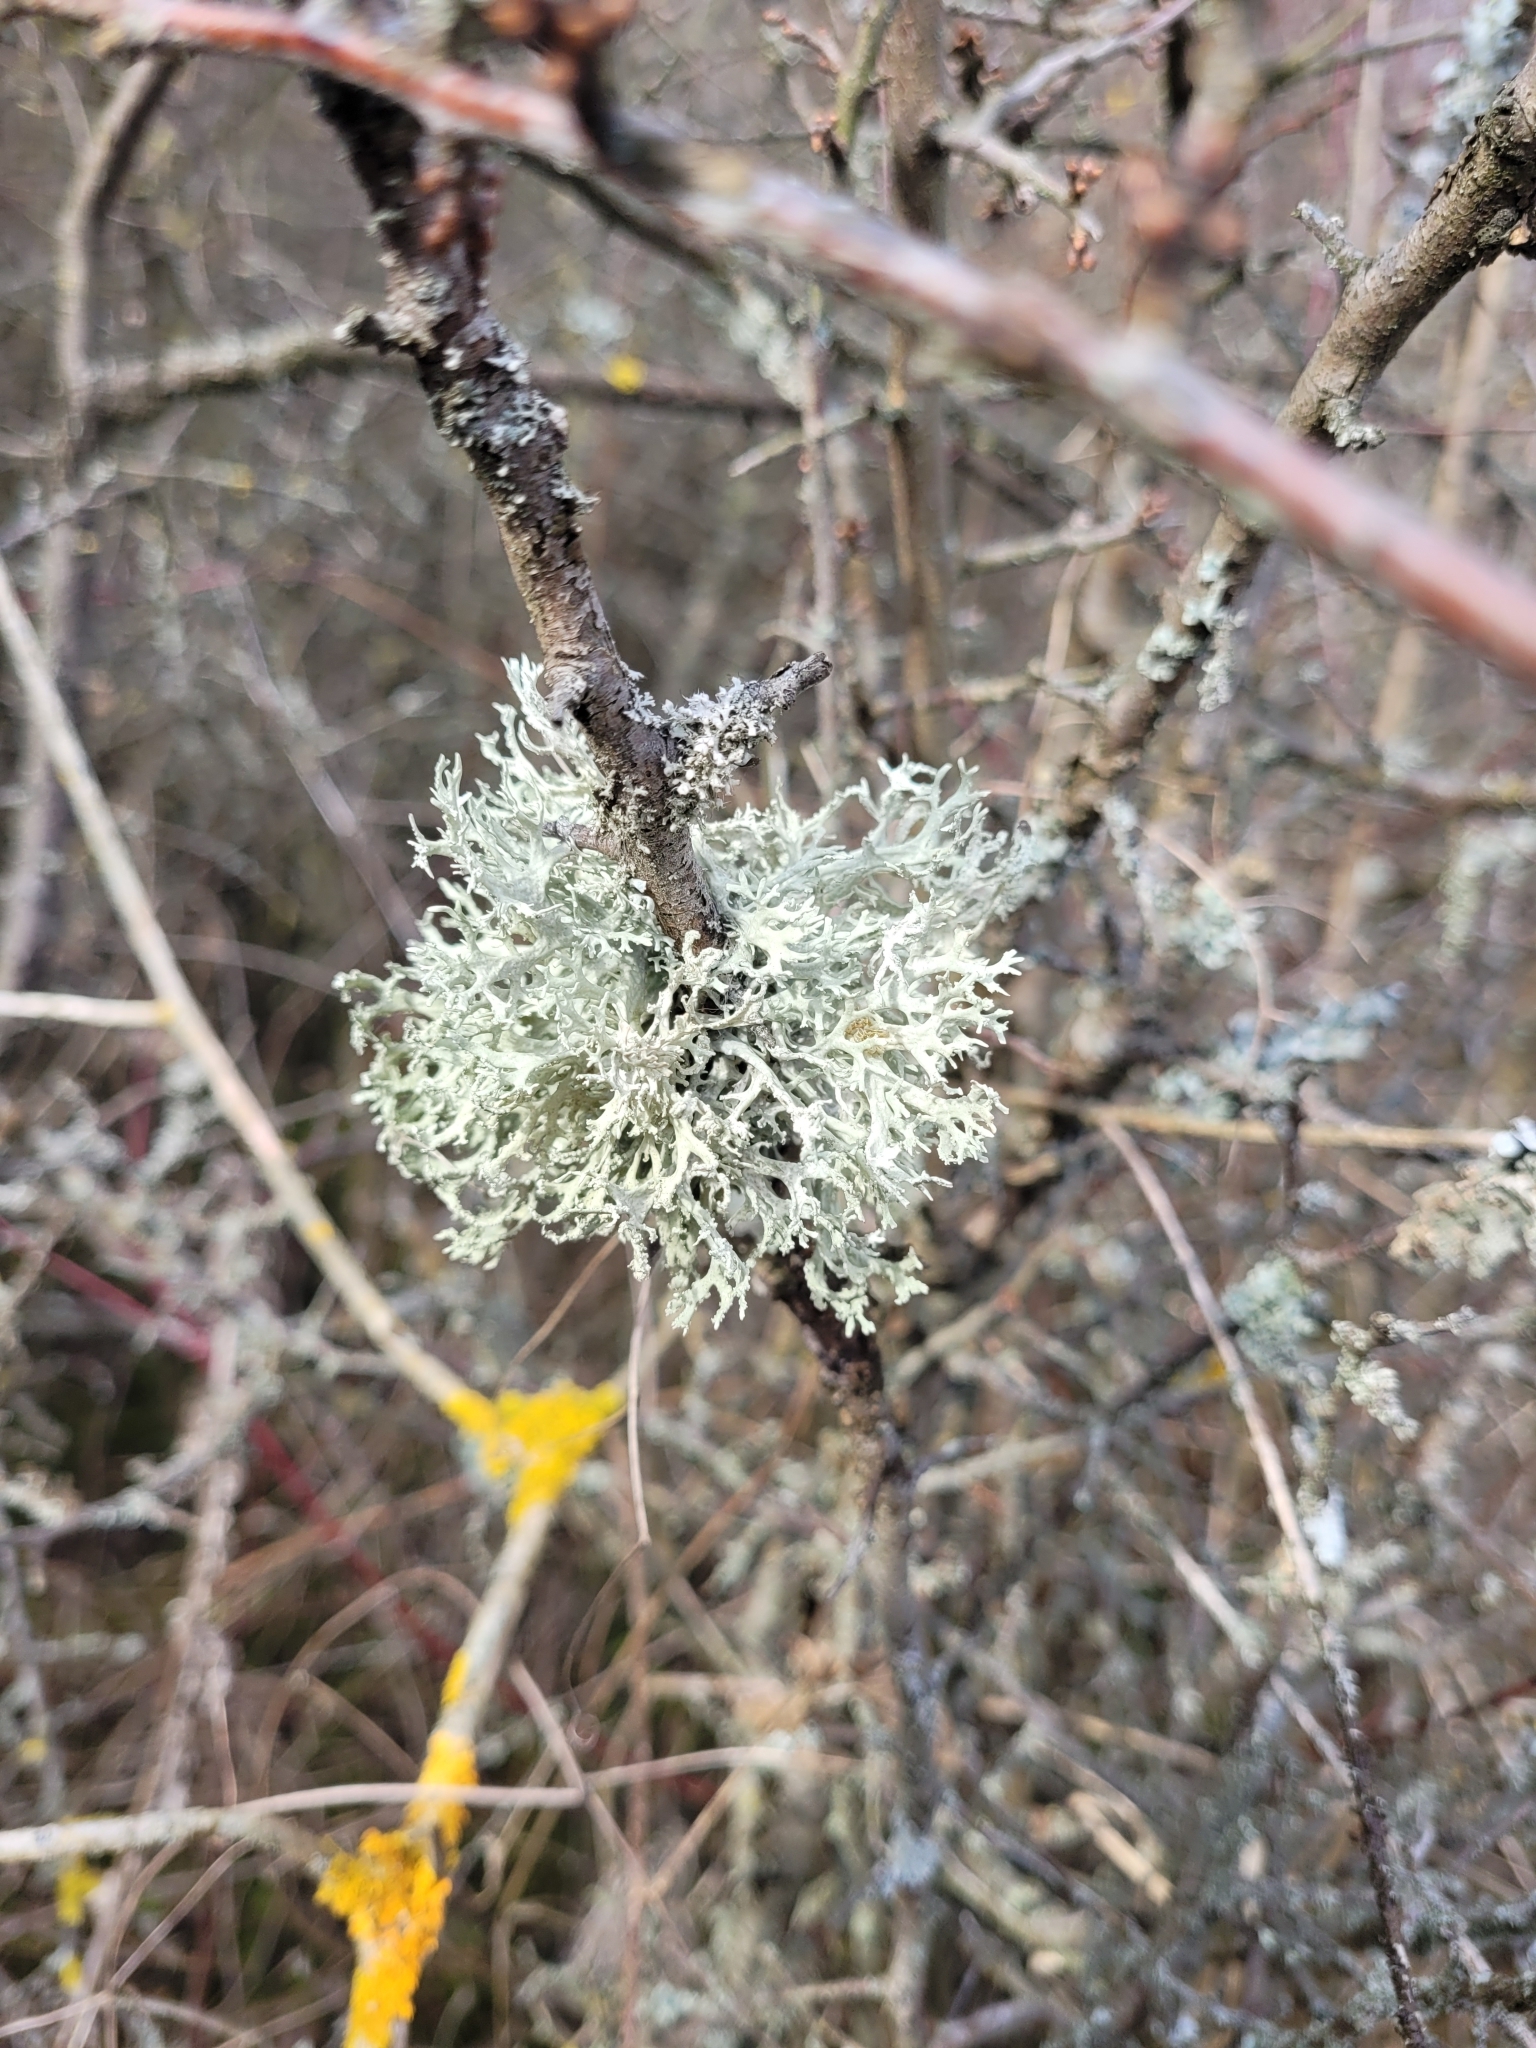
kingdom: Fungi
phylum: Ascomycota
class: Lecanoromycetes
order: Lecanorales
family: Parmeliaceae
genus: Evernia
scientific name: Evernia prunastri
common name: Oak moss
